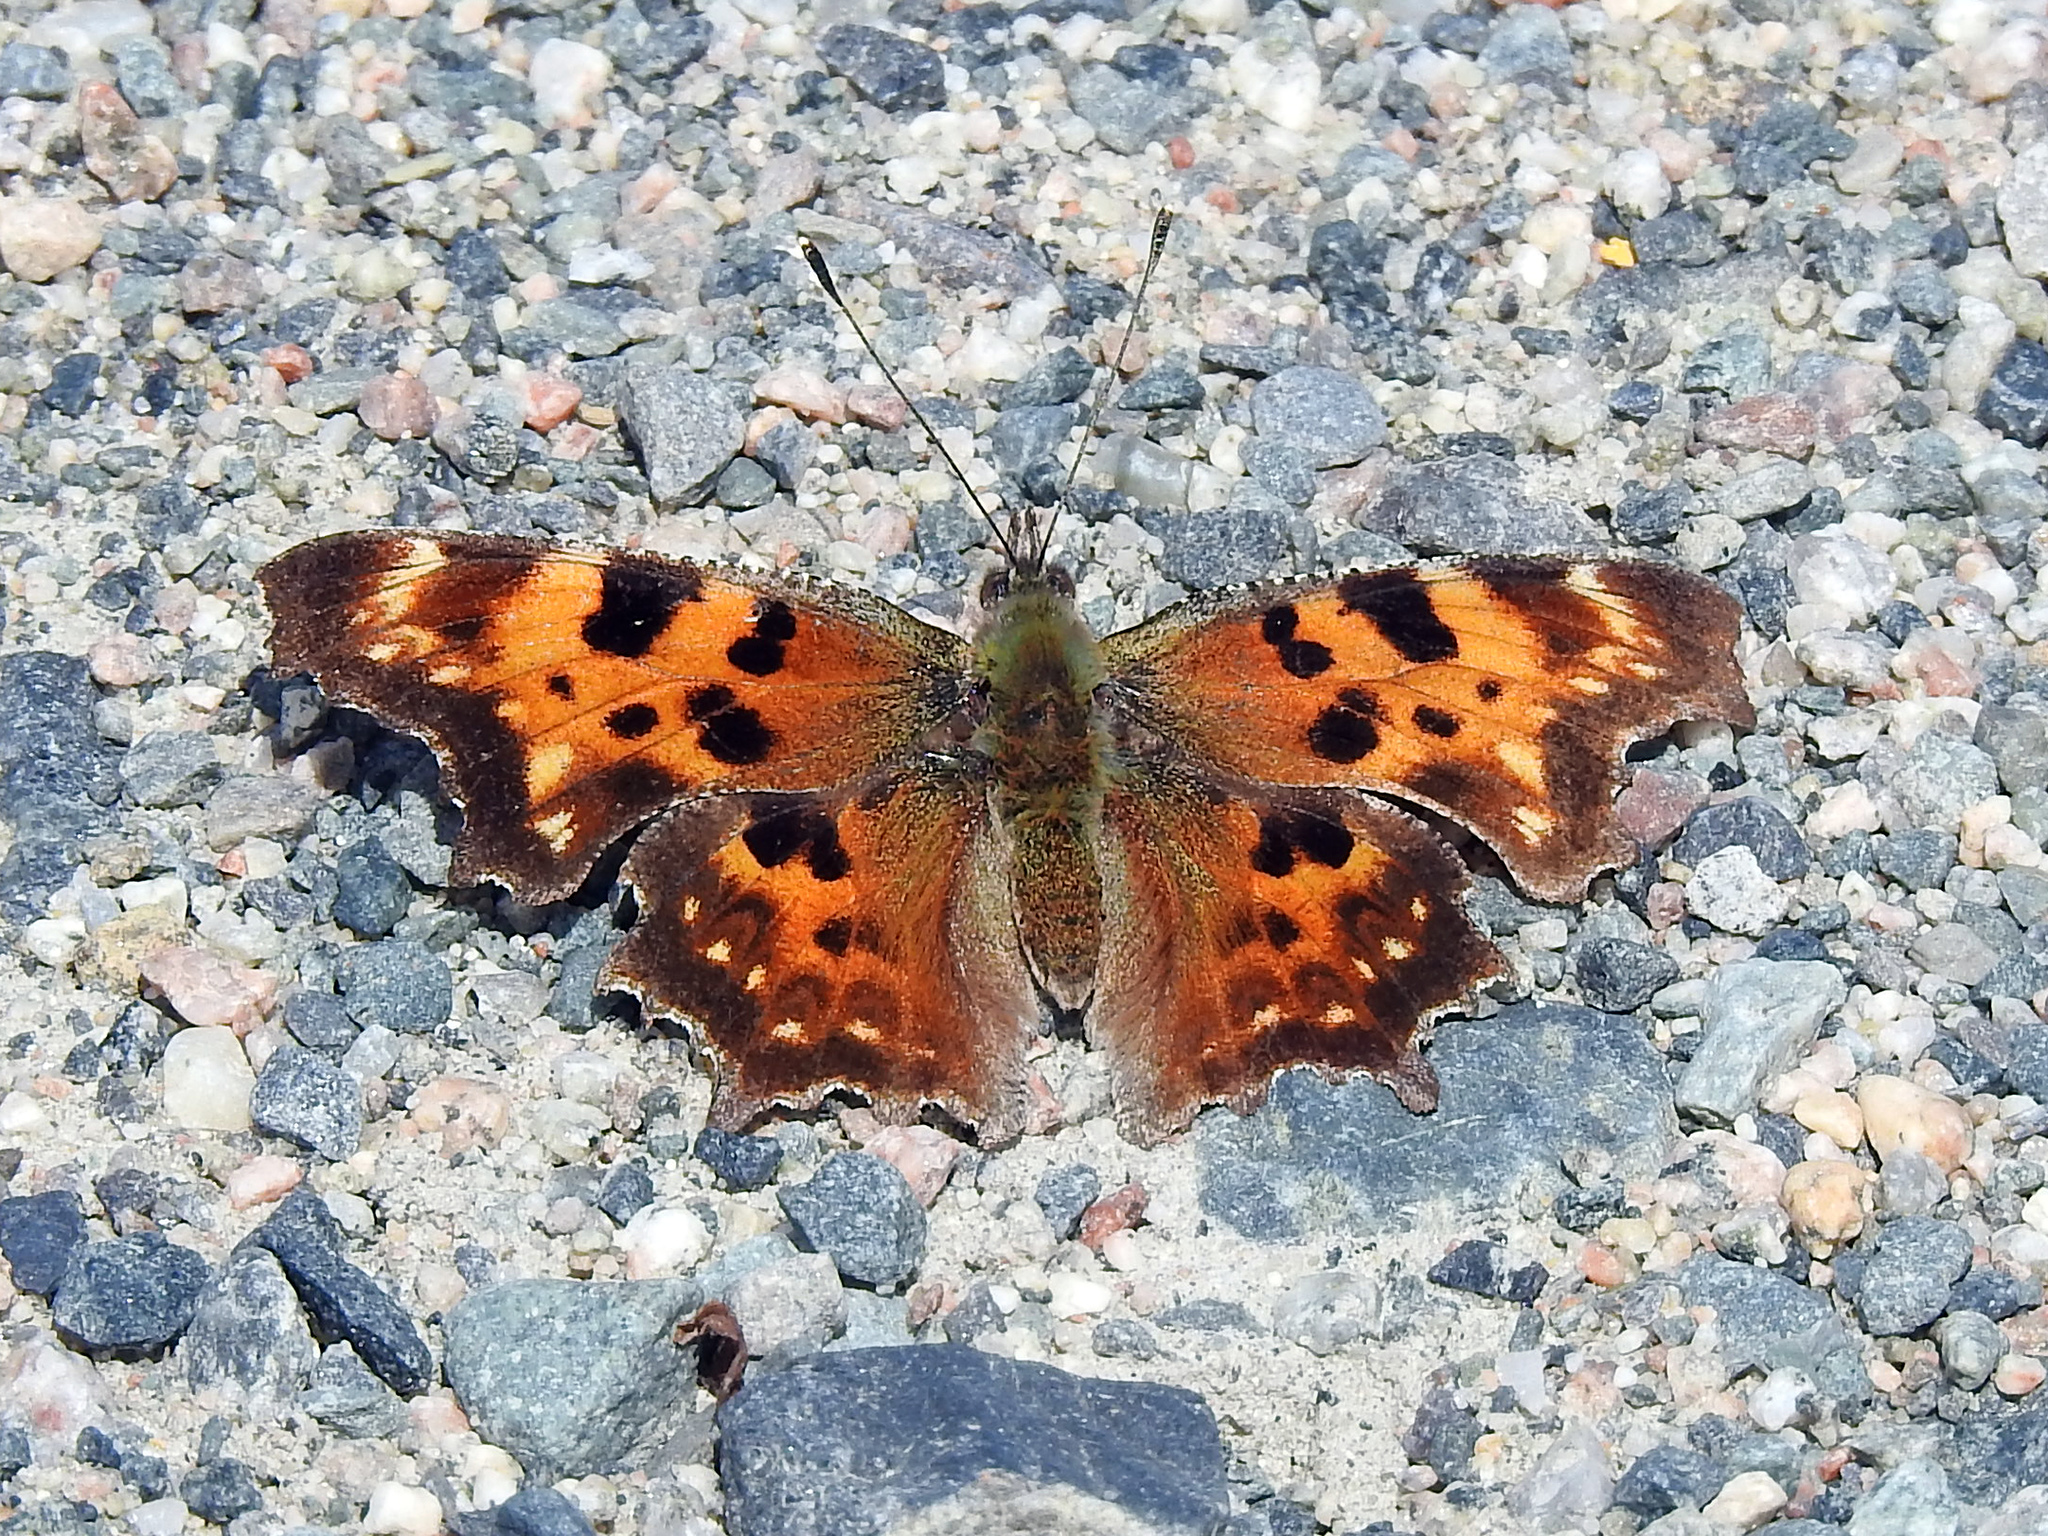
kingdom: Animalia
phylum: Arthropoda
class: Insecta
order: Lepidoptera
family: Nymphalidae
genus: Polygonia
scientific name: Polygonia faunus
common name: Green comma
